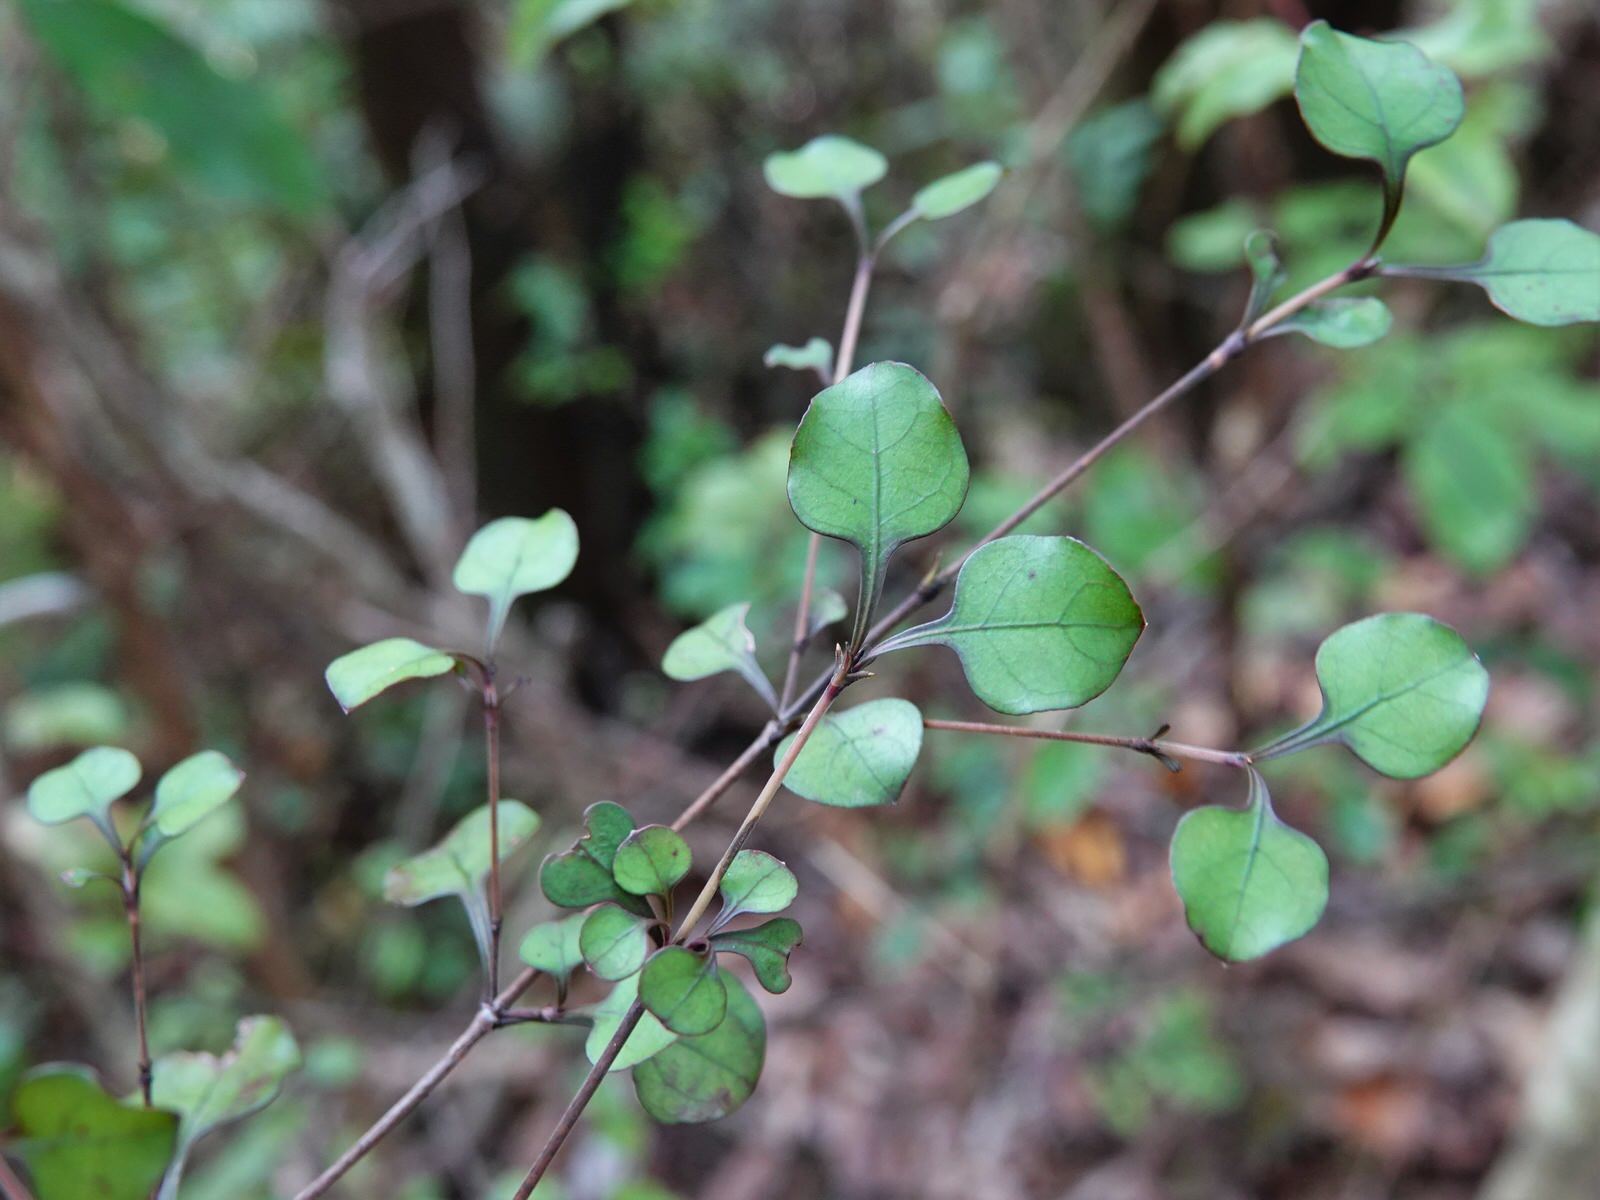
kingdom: Plantae
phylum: Tracheophyta
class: Magnoliopsida
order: Gentianales
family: Rubiaceae
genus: Coprosma
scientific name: Coprosma arborea
